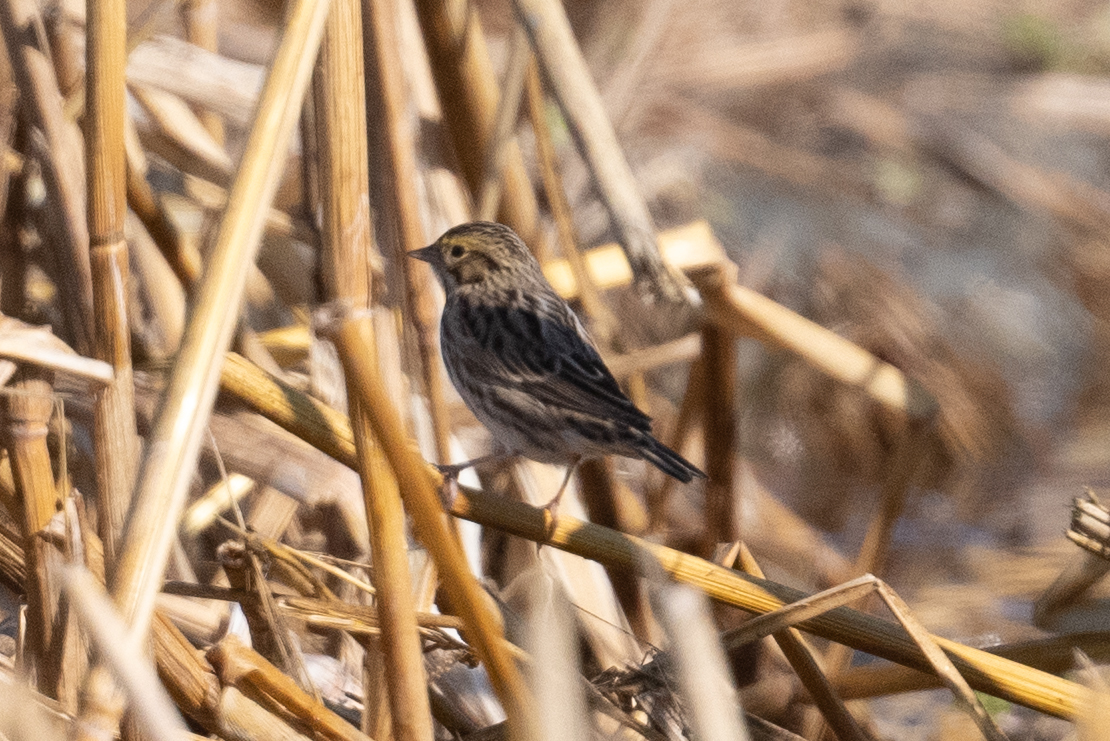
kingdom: Animalia
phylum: Chordata
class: Aves
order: Passeriformes
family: Passerellidae
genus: Passerculus
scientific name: Passerculus sandwichensis
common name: Savannah sparrow
